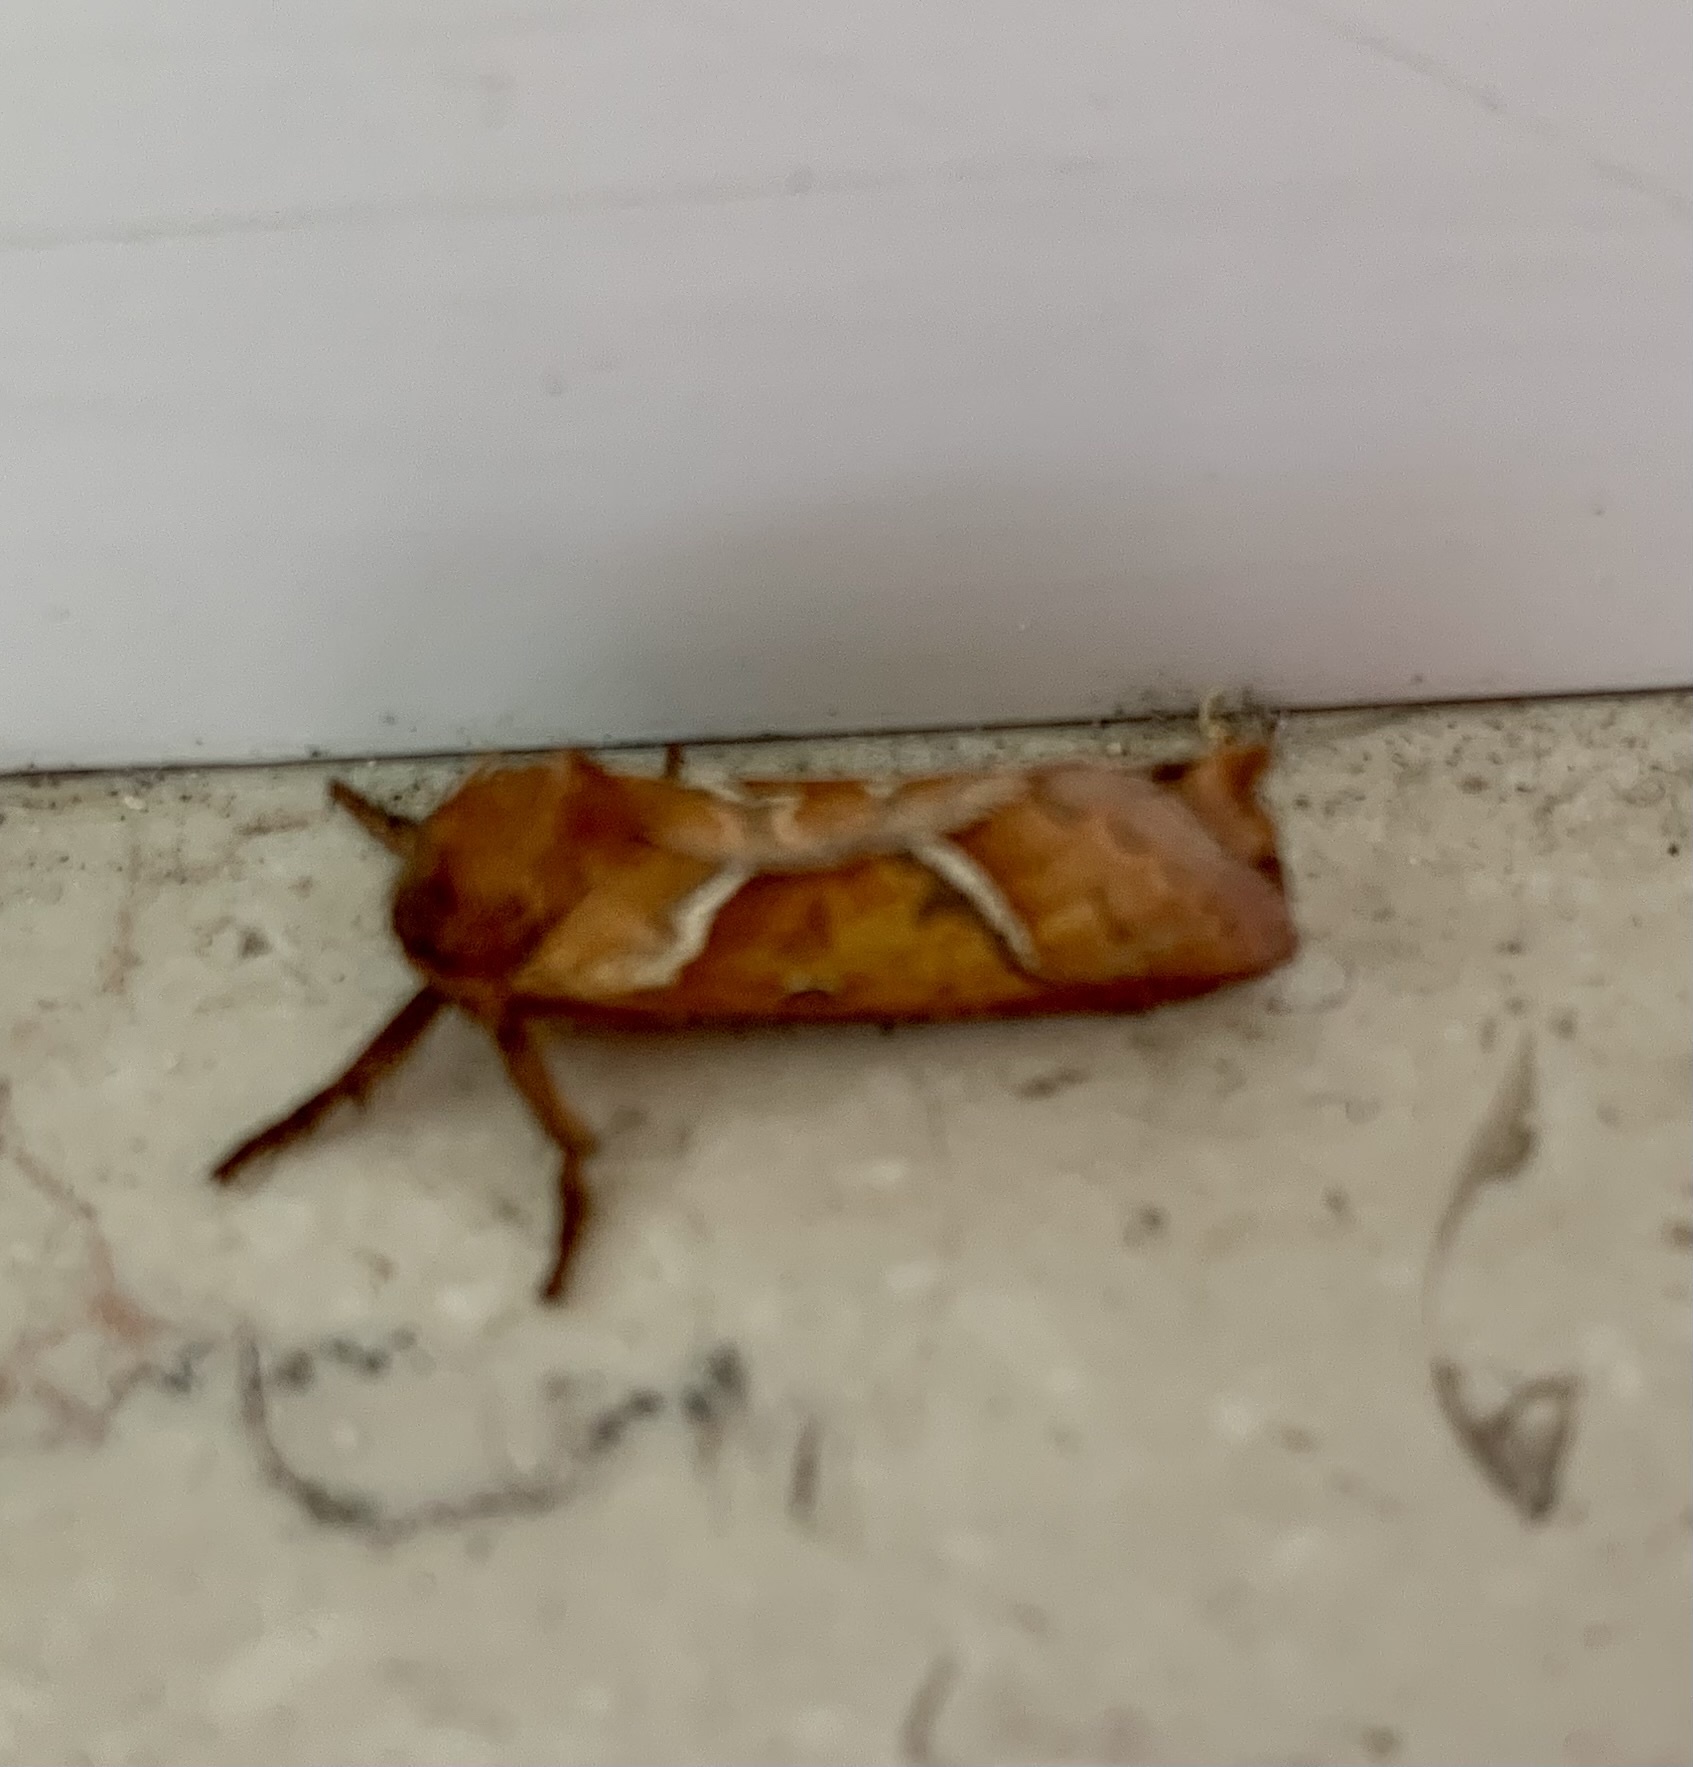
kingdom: Animalia
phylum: Arthropoda
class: Insecta
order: Lepidoptera
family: Hepialidae
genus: Triodia
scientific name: Triodia sylvina
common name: Orange swift
